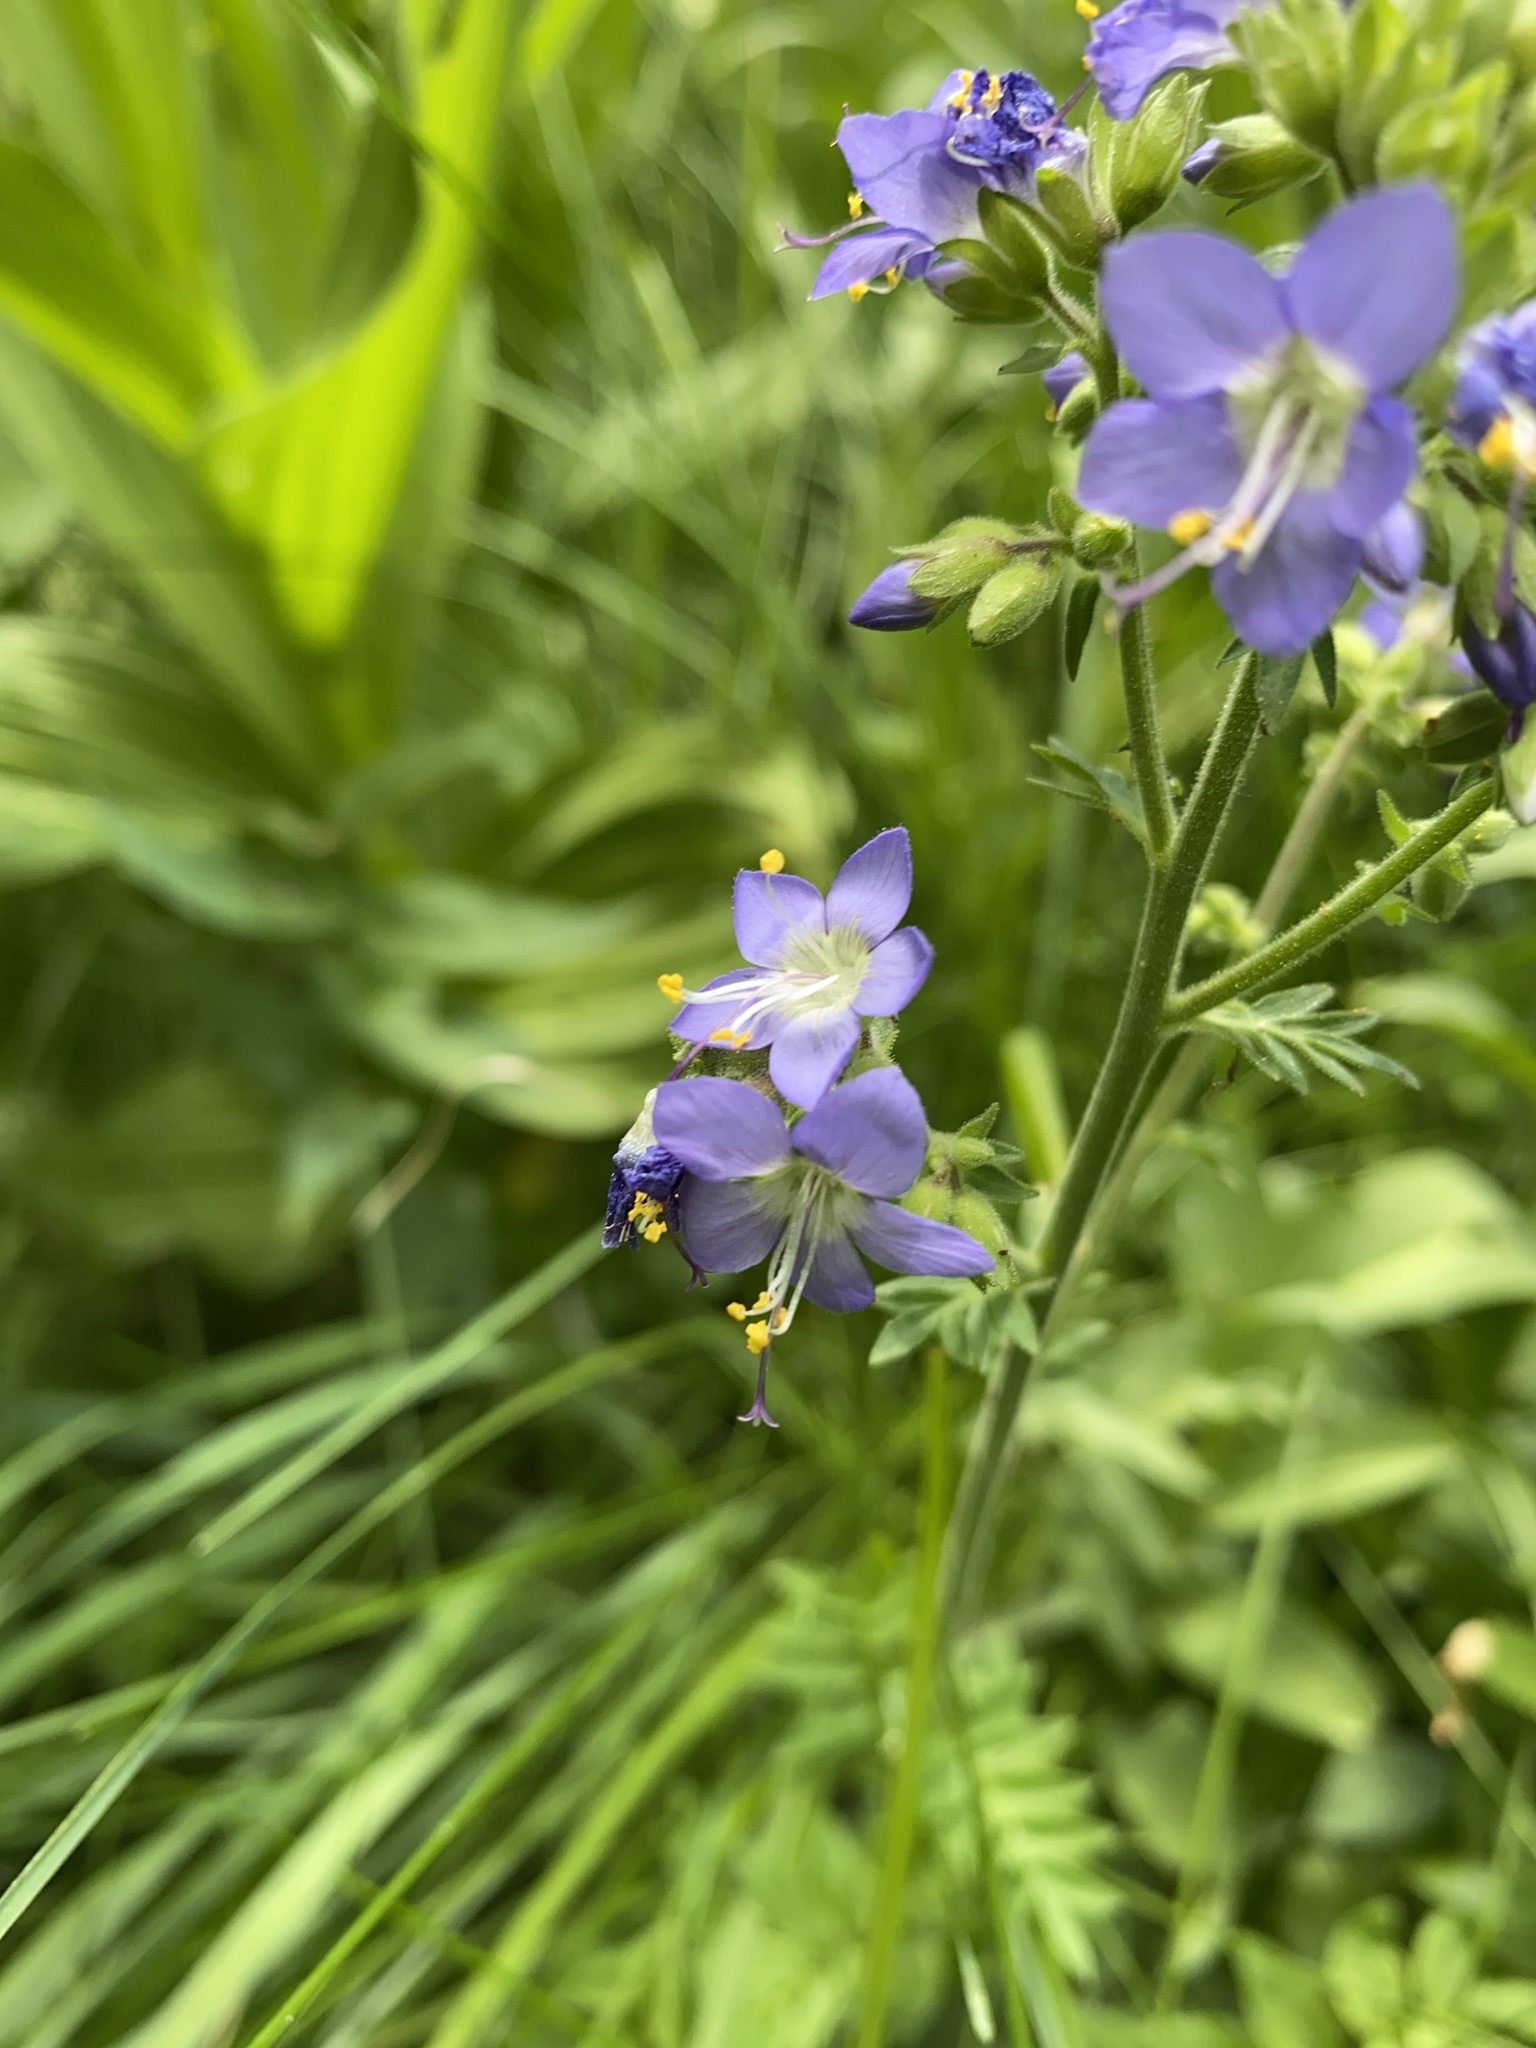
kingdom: Plantae
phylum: Tracheophyta
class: Magnoliopsida
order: Ericales
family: Polemoniaceae
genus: Polemonium
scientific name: Polemonium occidentale
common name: Western jacob's-ladder
